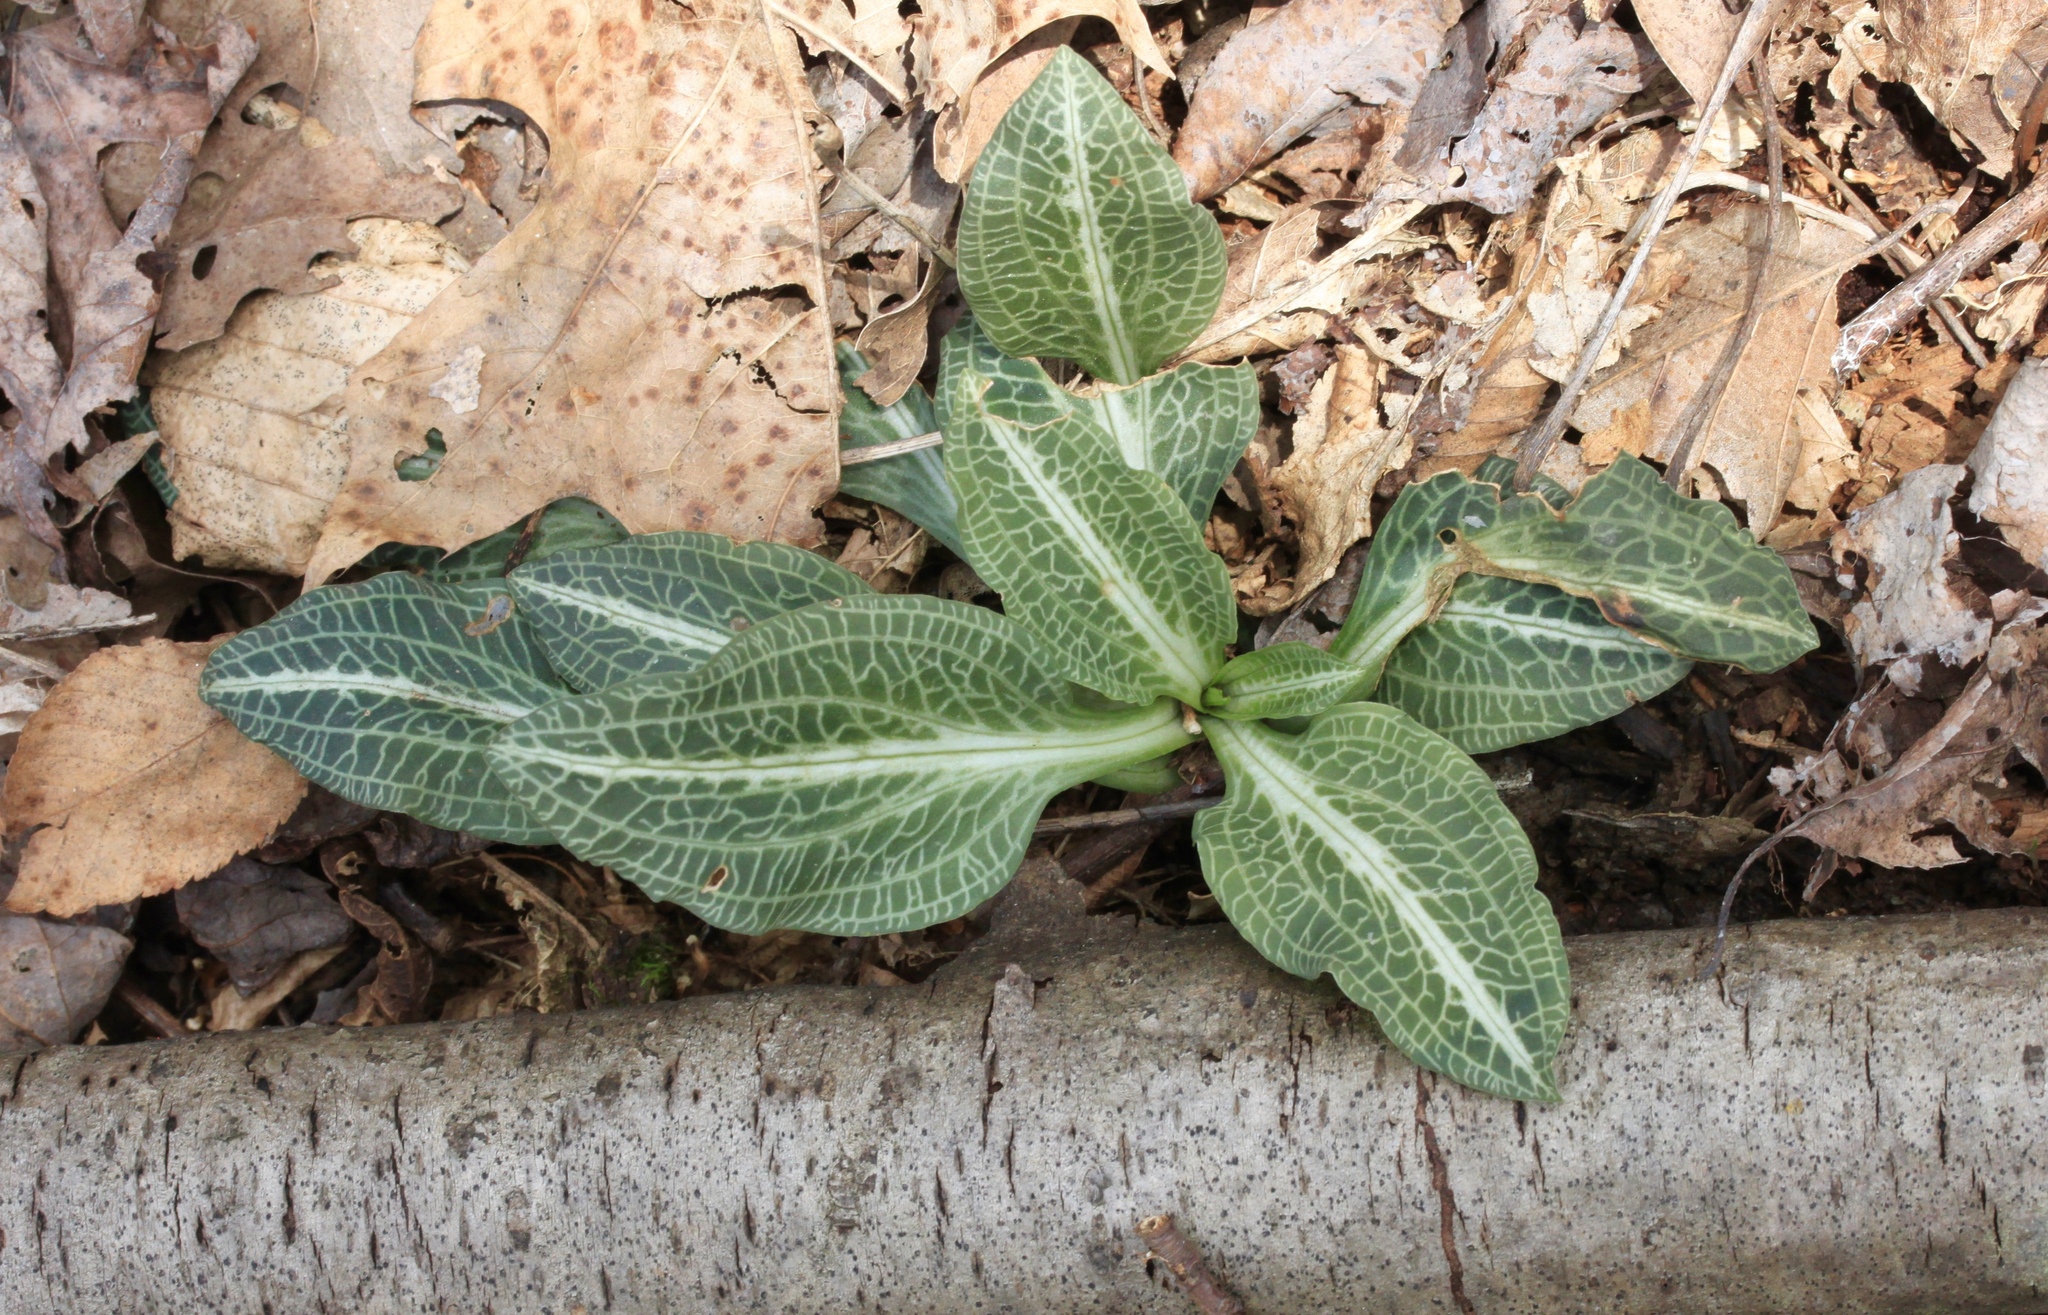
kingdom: Plantae
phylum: Tracheophyta
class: Liliopsida
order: Asparagales
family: Orchidaceae
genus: Goodyera
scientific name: Goodyera pubescens
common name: Downy rattlesnake-plantain
